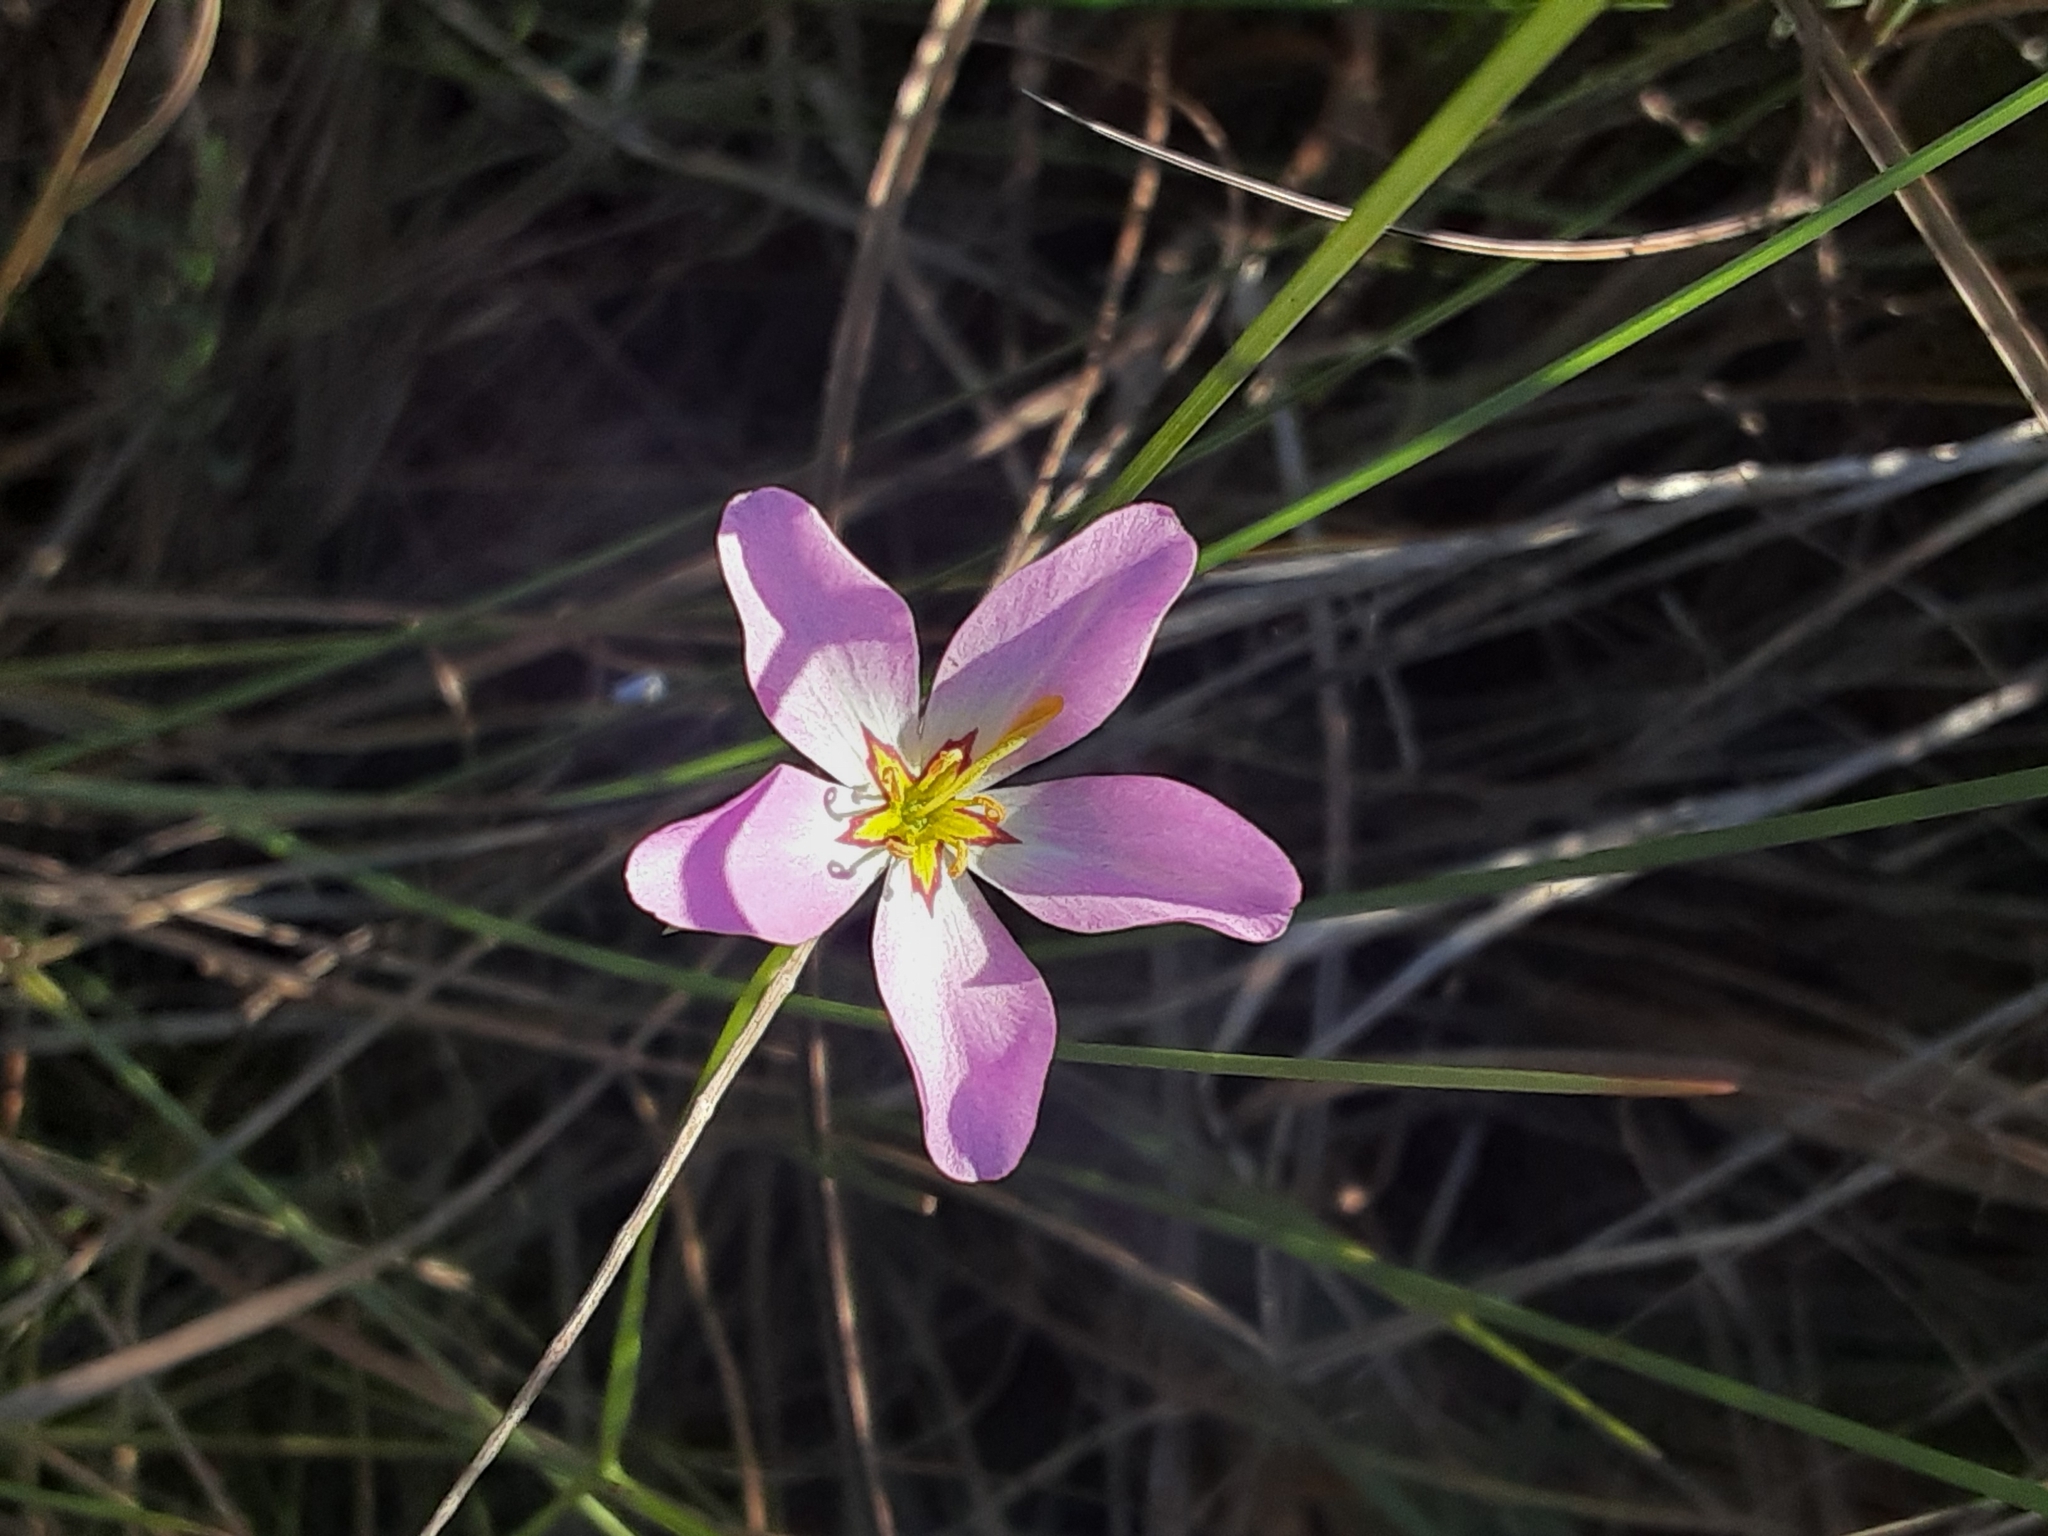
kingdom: Plantae
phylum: Tracheophyta
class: Magnoliopsida
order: Gentianales
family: Gentianaceae
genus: Sabatia
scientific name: Sabatia stellaris
